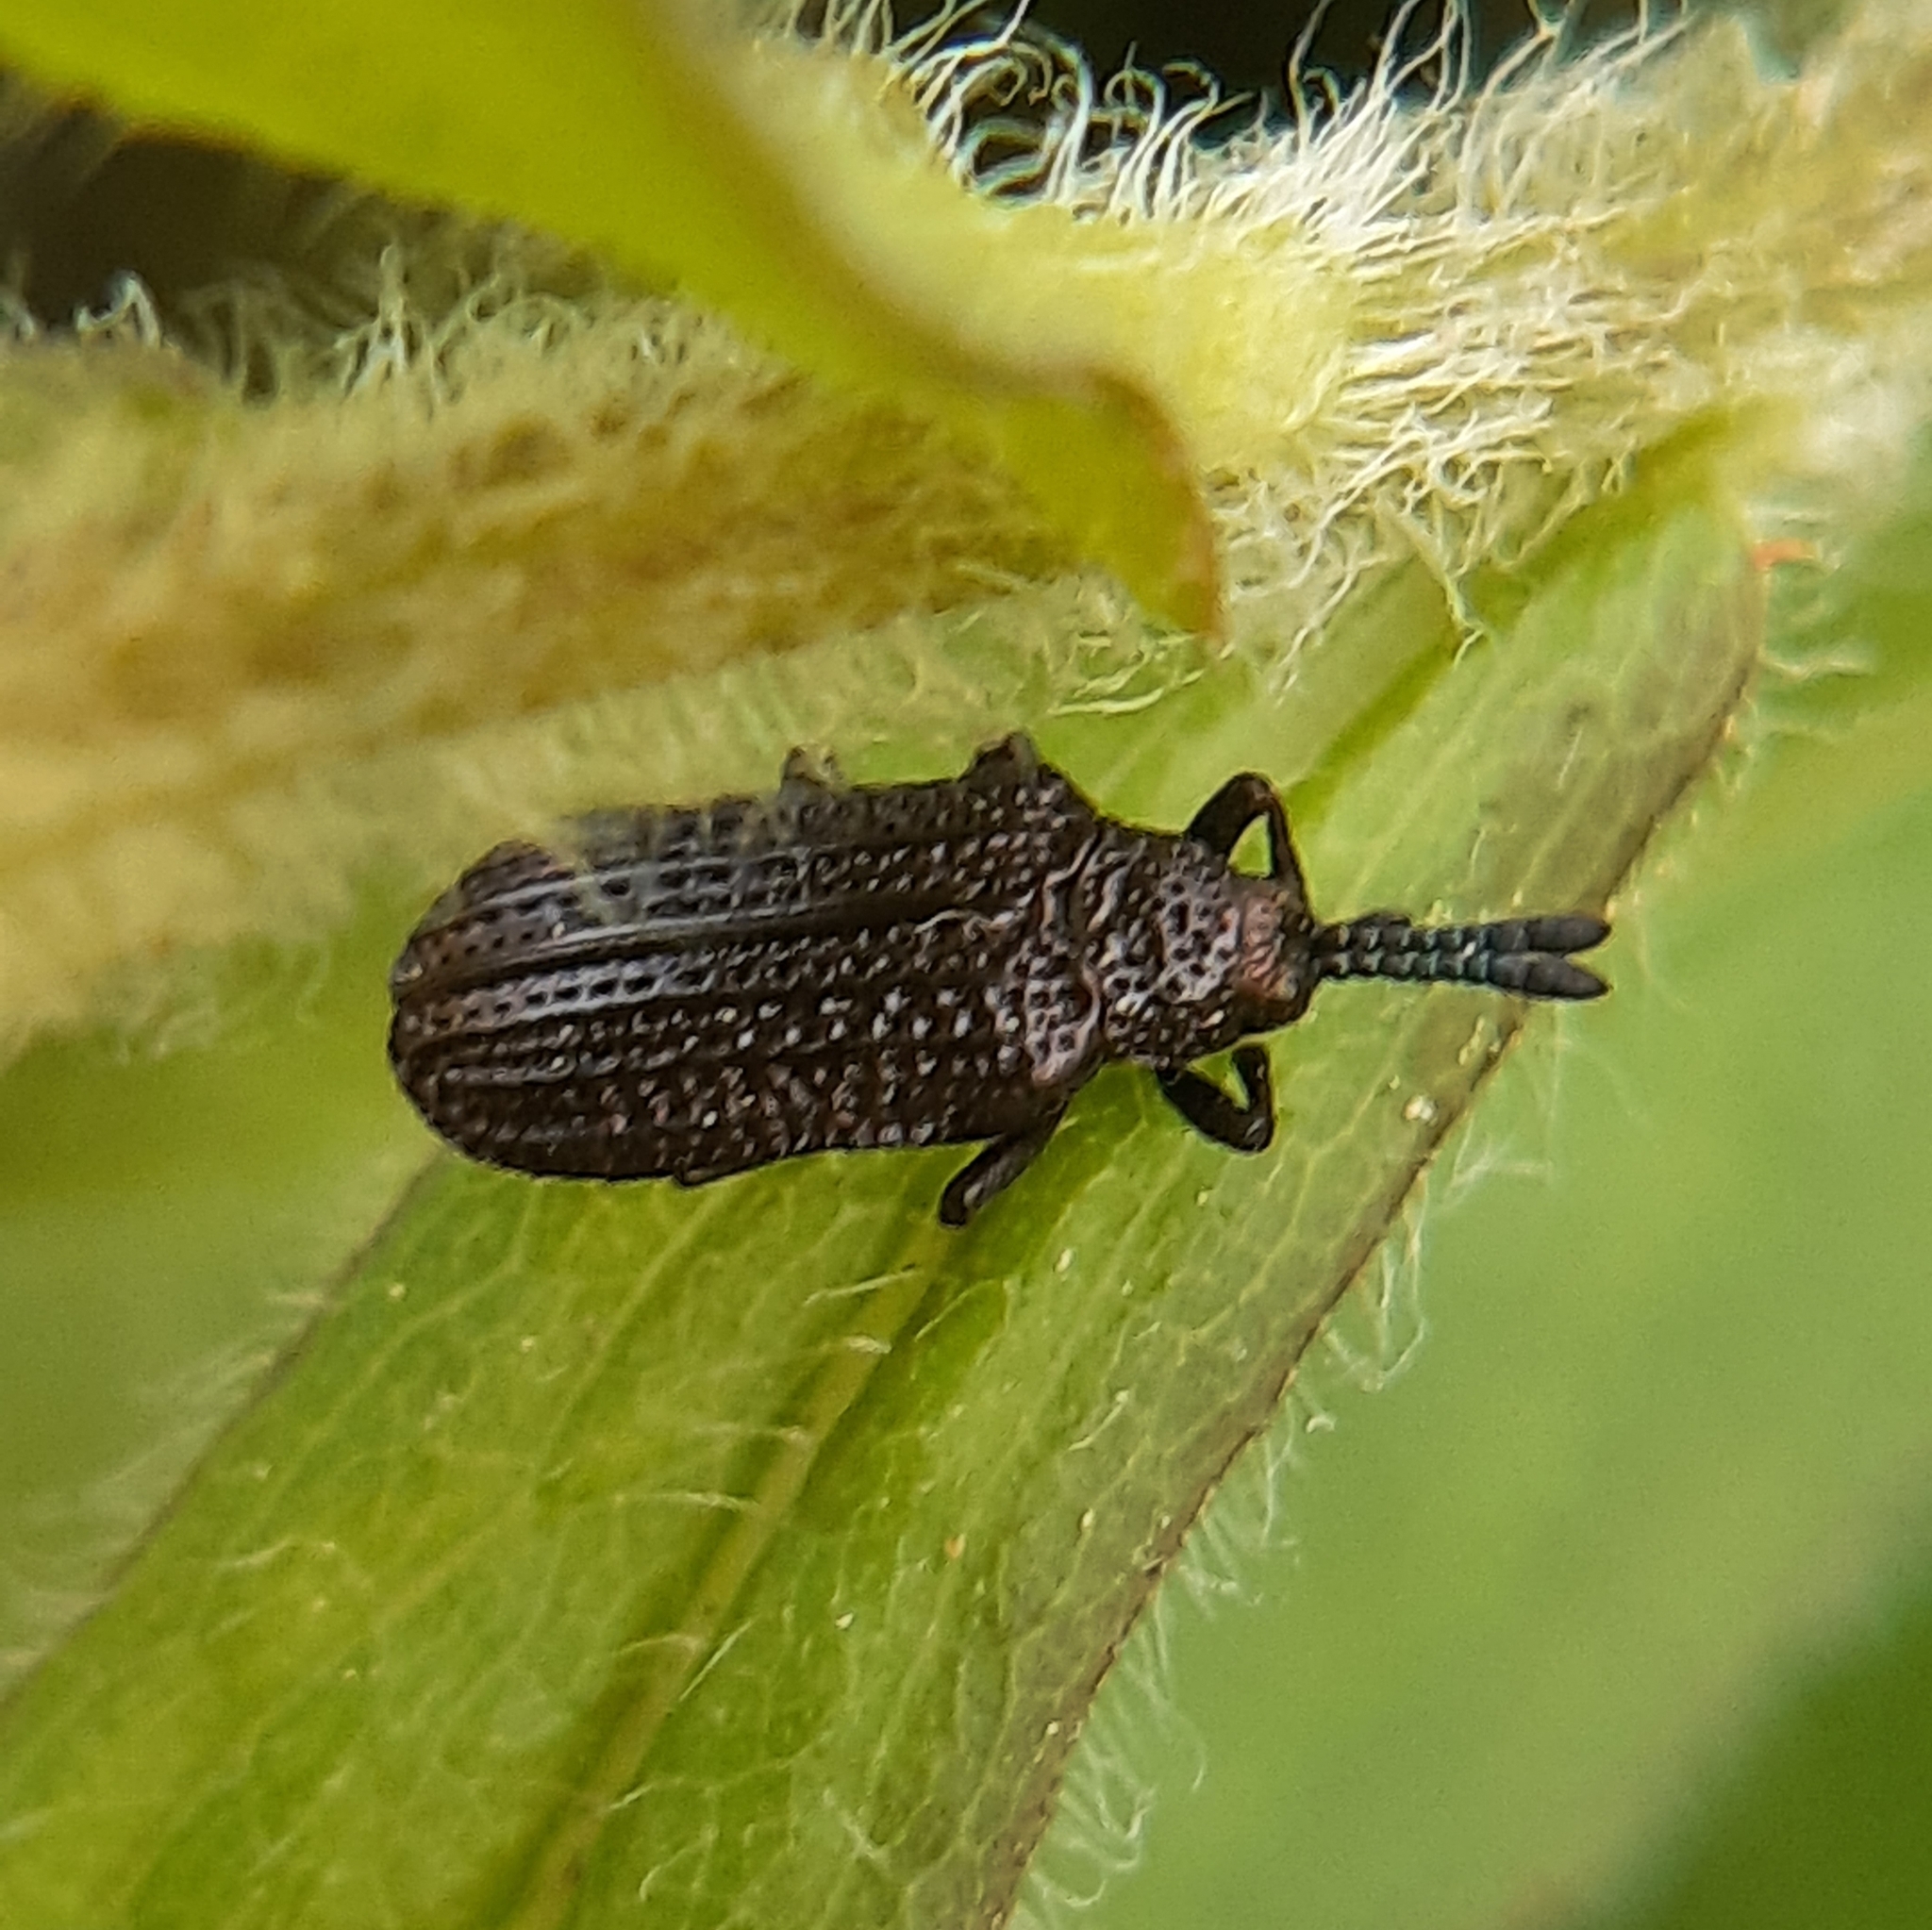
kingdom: Animalia
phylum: Arthropoda
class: Insecta
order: Coleoptera
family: Chrysomelidae
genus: Microrhopala
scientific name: Microrhopala excavata
